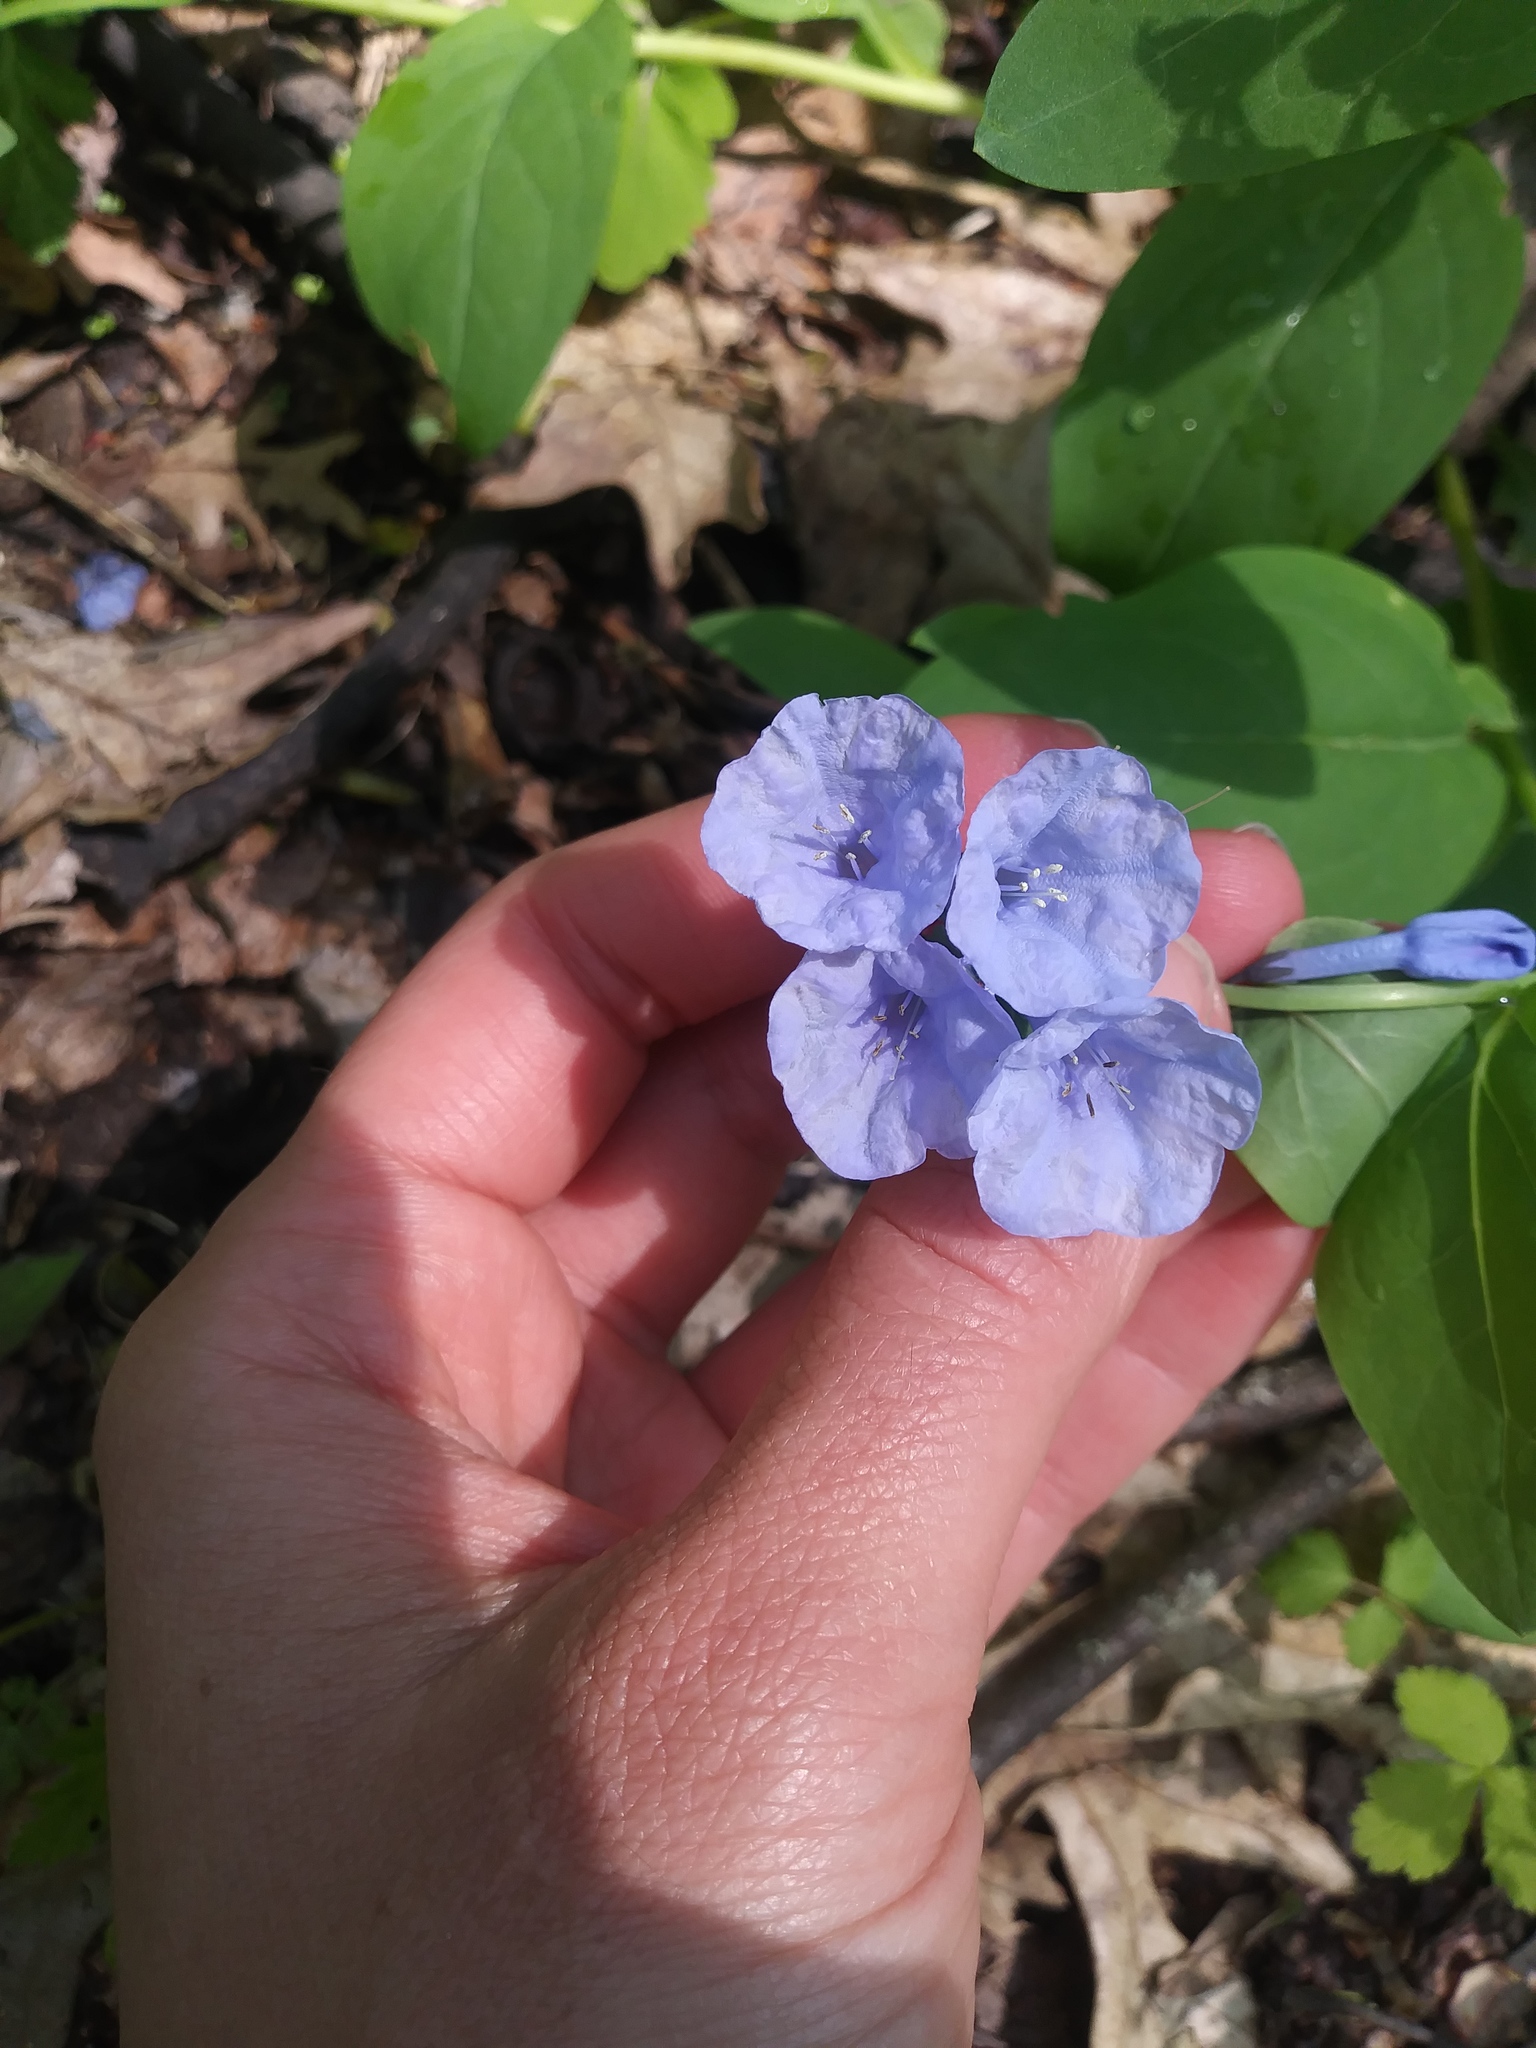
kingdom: Plantae
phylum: Tracheophyta
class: Magnoliopsida
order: Boraginales
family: Boraginaceae
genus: Mertensia
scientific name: Mertensia virginica
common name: Virginia bluebells
